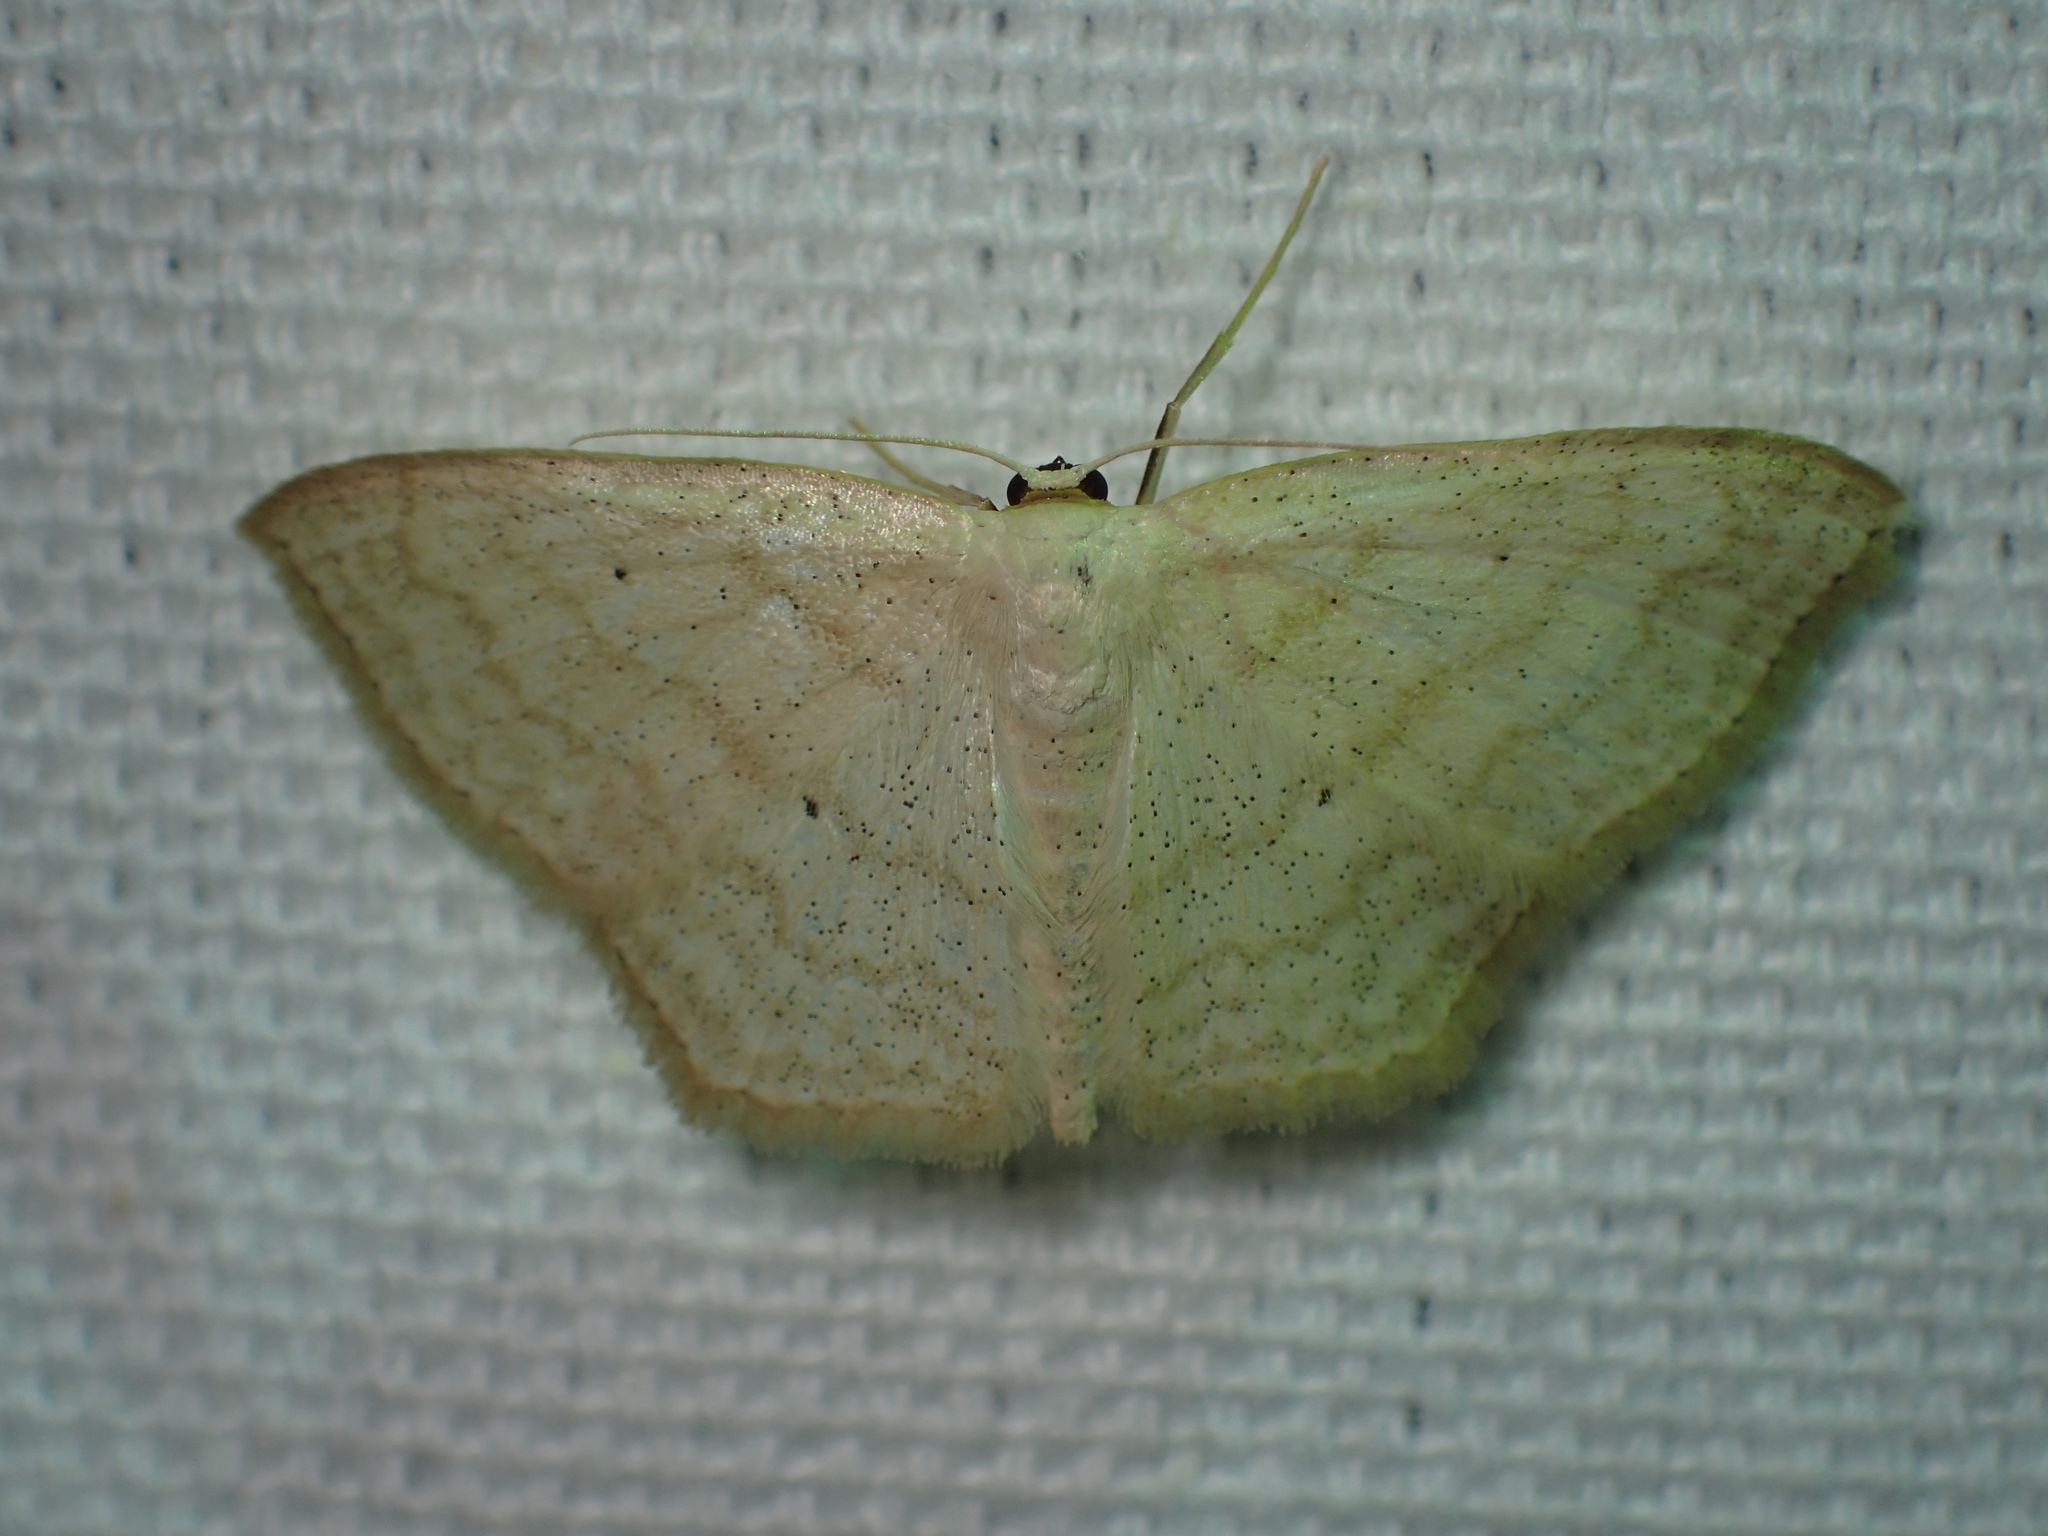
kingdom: Animalia
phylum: Arthropoda
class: Insecta
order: Lepidoptera
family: Geometridae
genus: Scopula
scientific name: Scopula limboundata
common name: Large lace border
